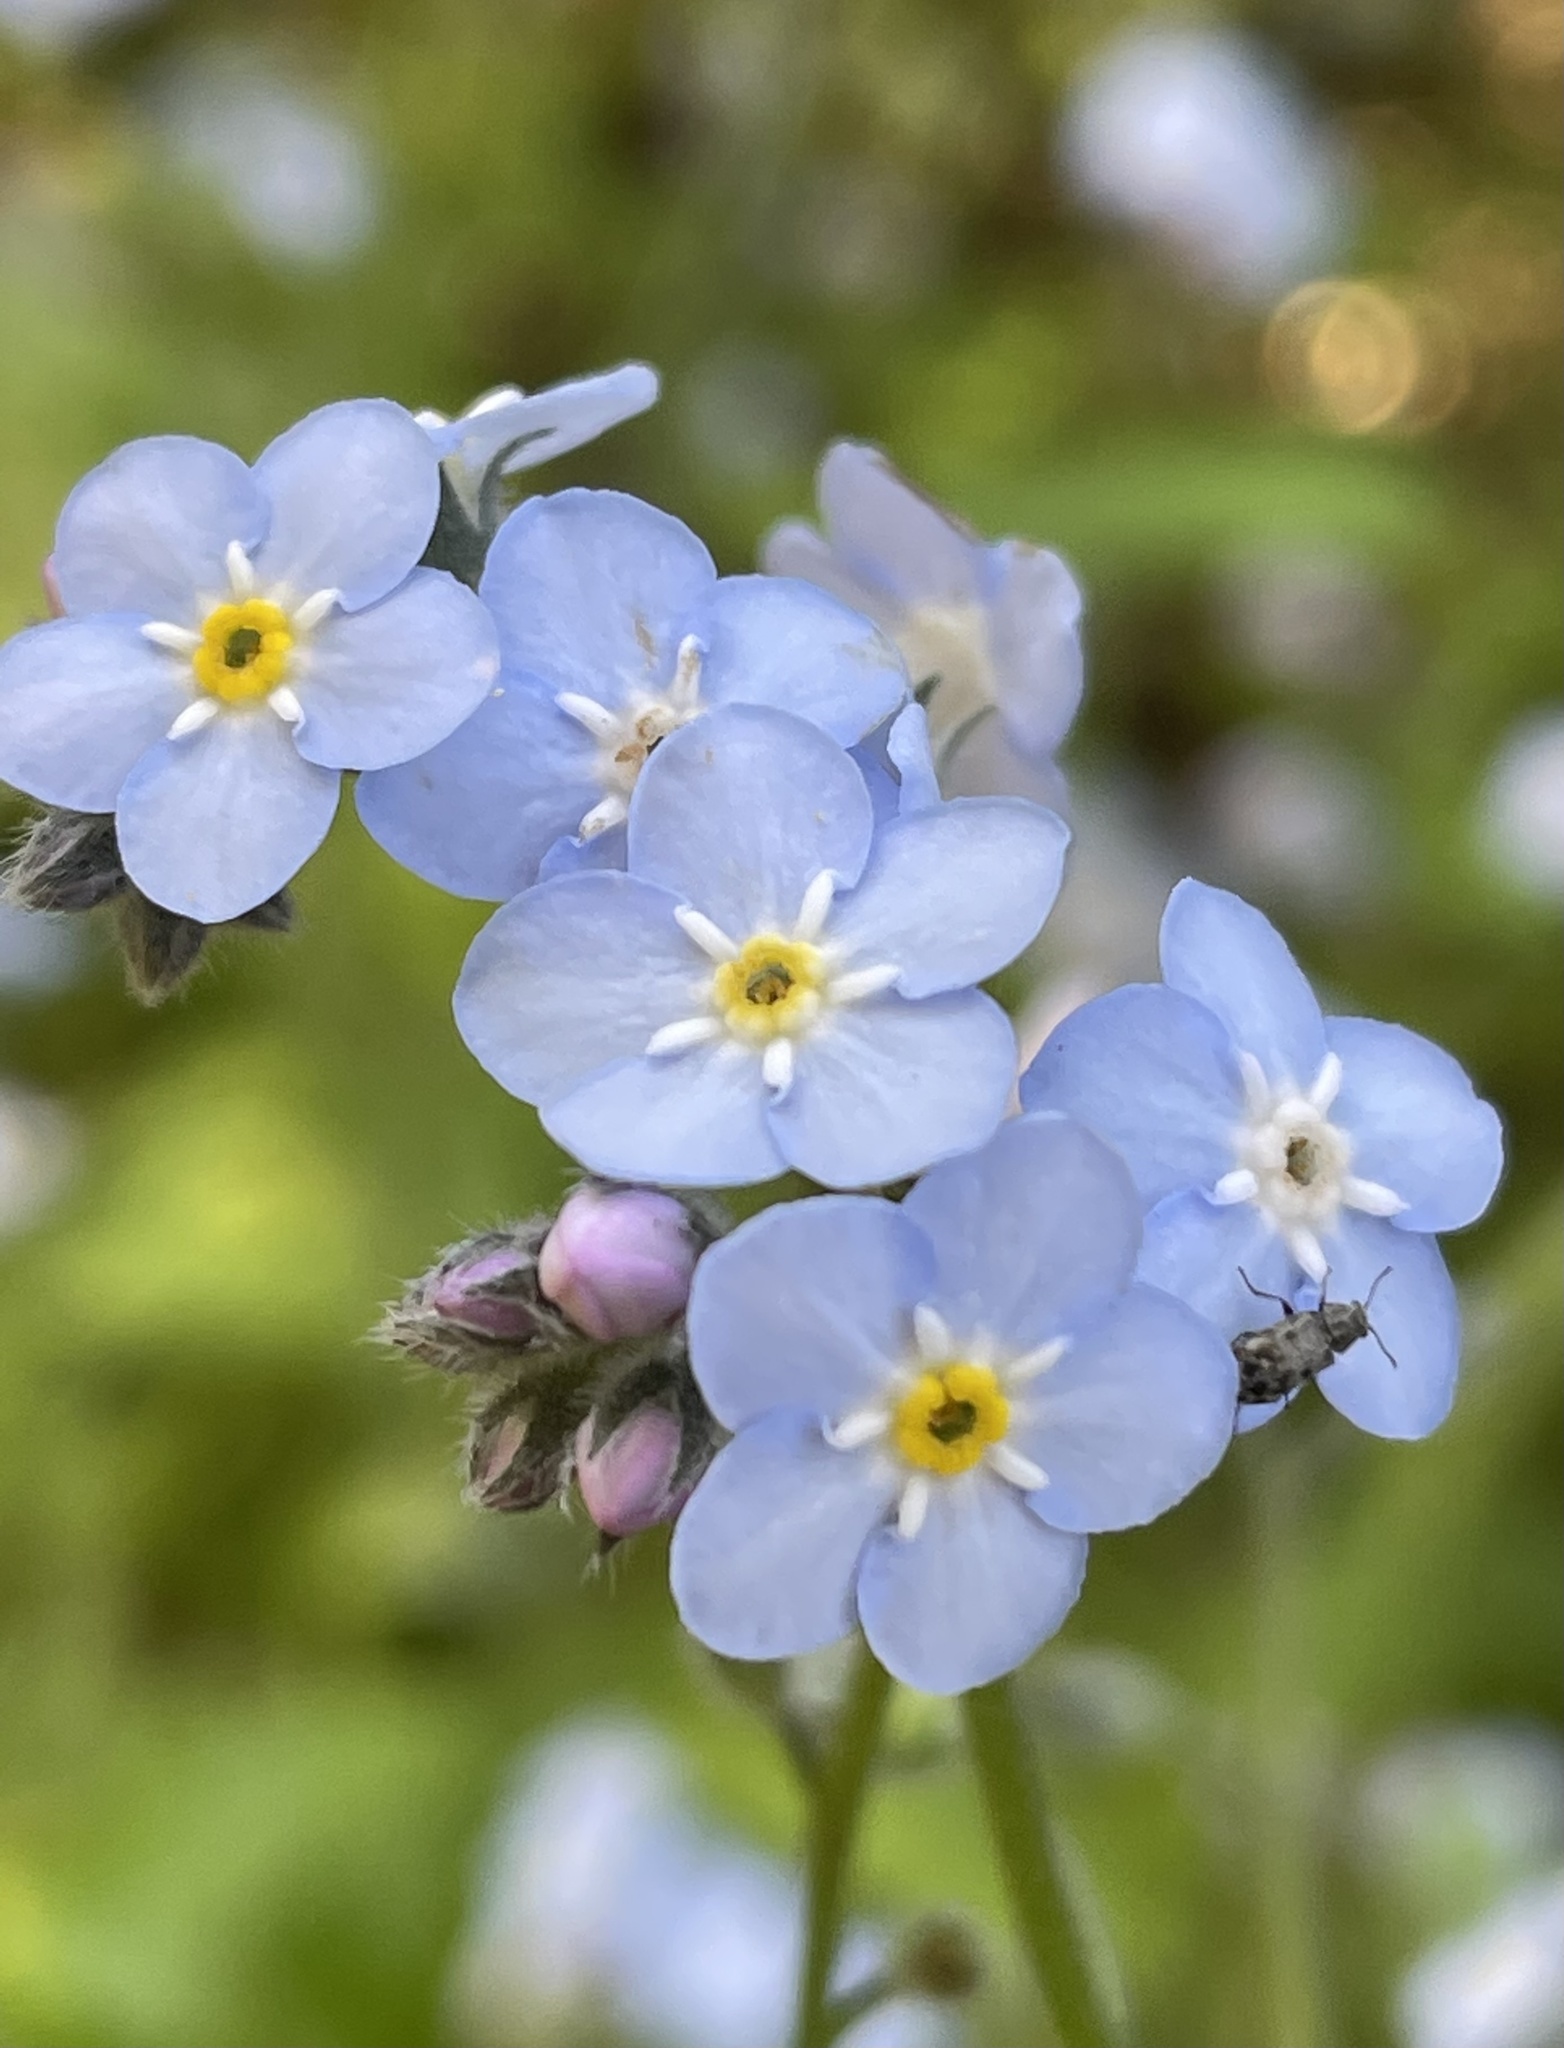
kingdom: Plantae
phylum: Tracheophyta
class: Magnoliopsida
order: Boraginales
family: Boraginaceae
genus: Myosotis
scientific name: Myosotis latifolia
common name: Broadleaf forget-me-not
